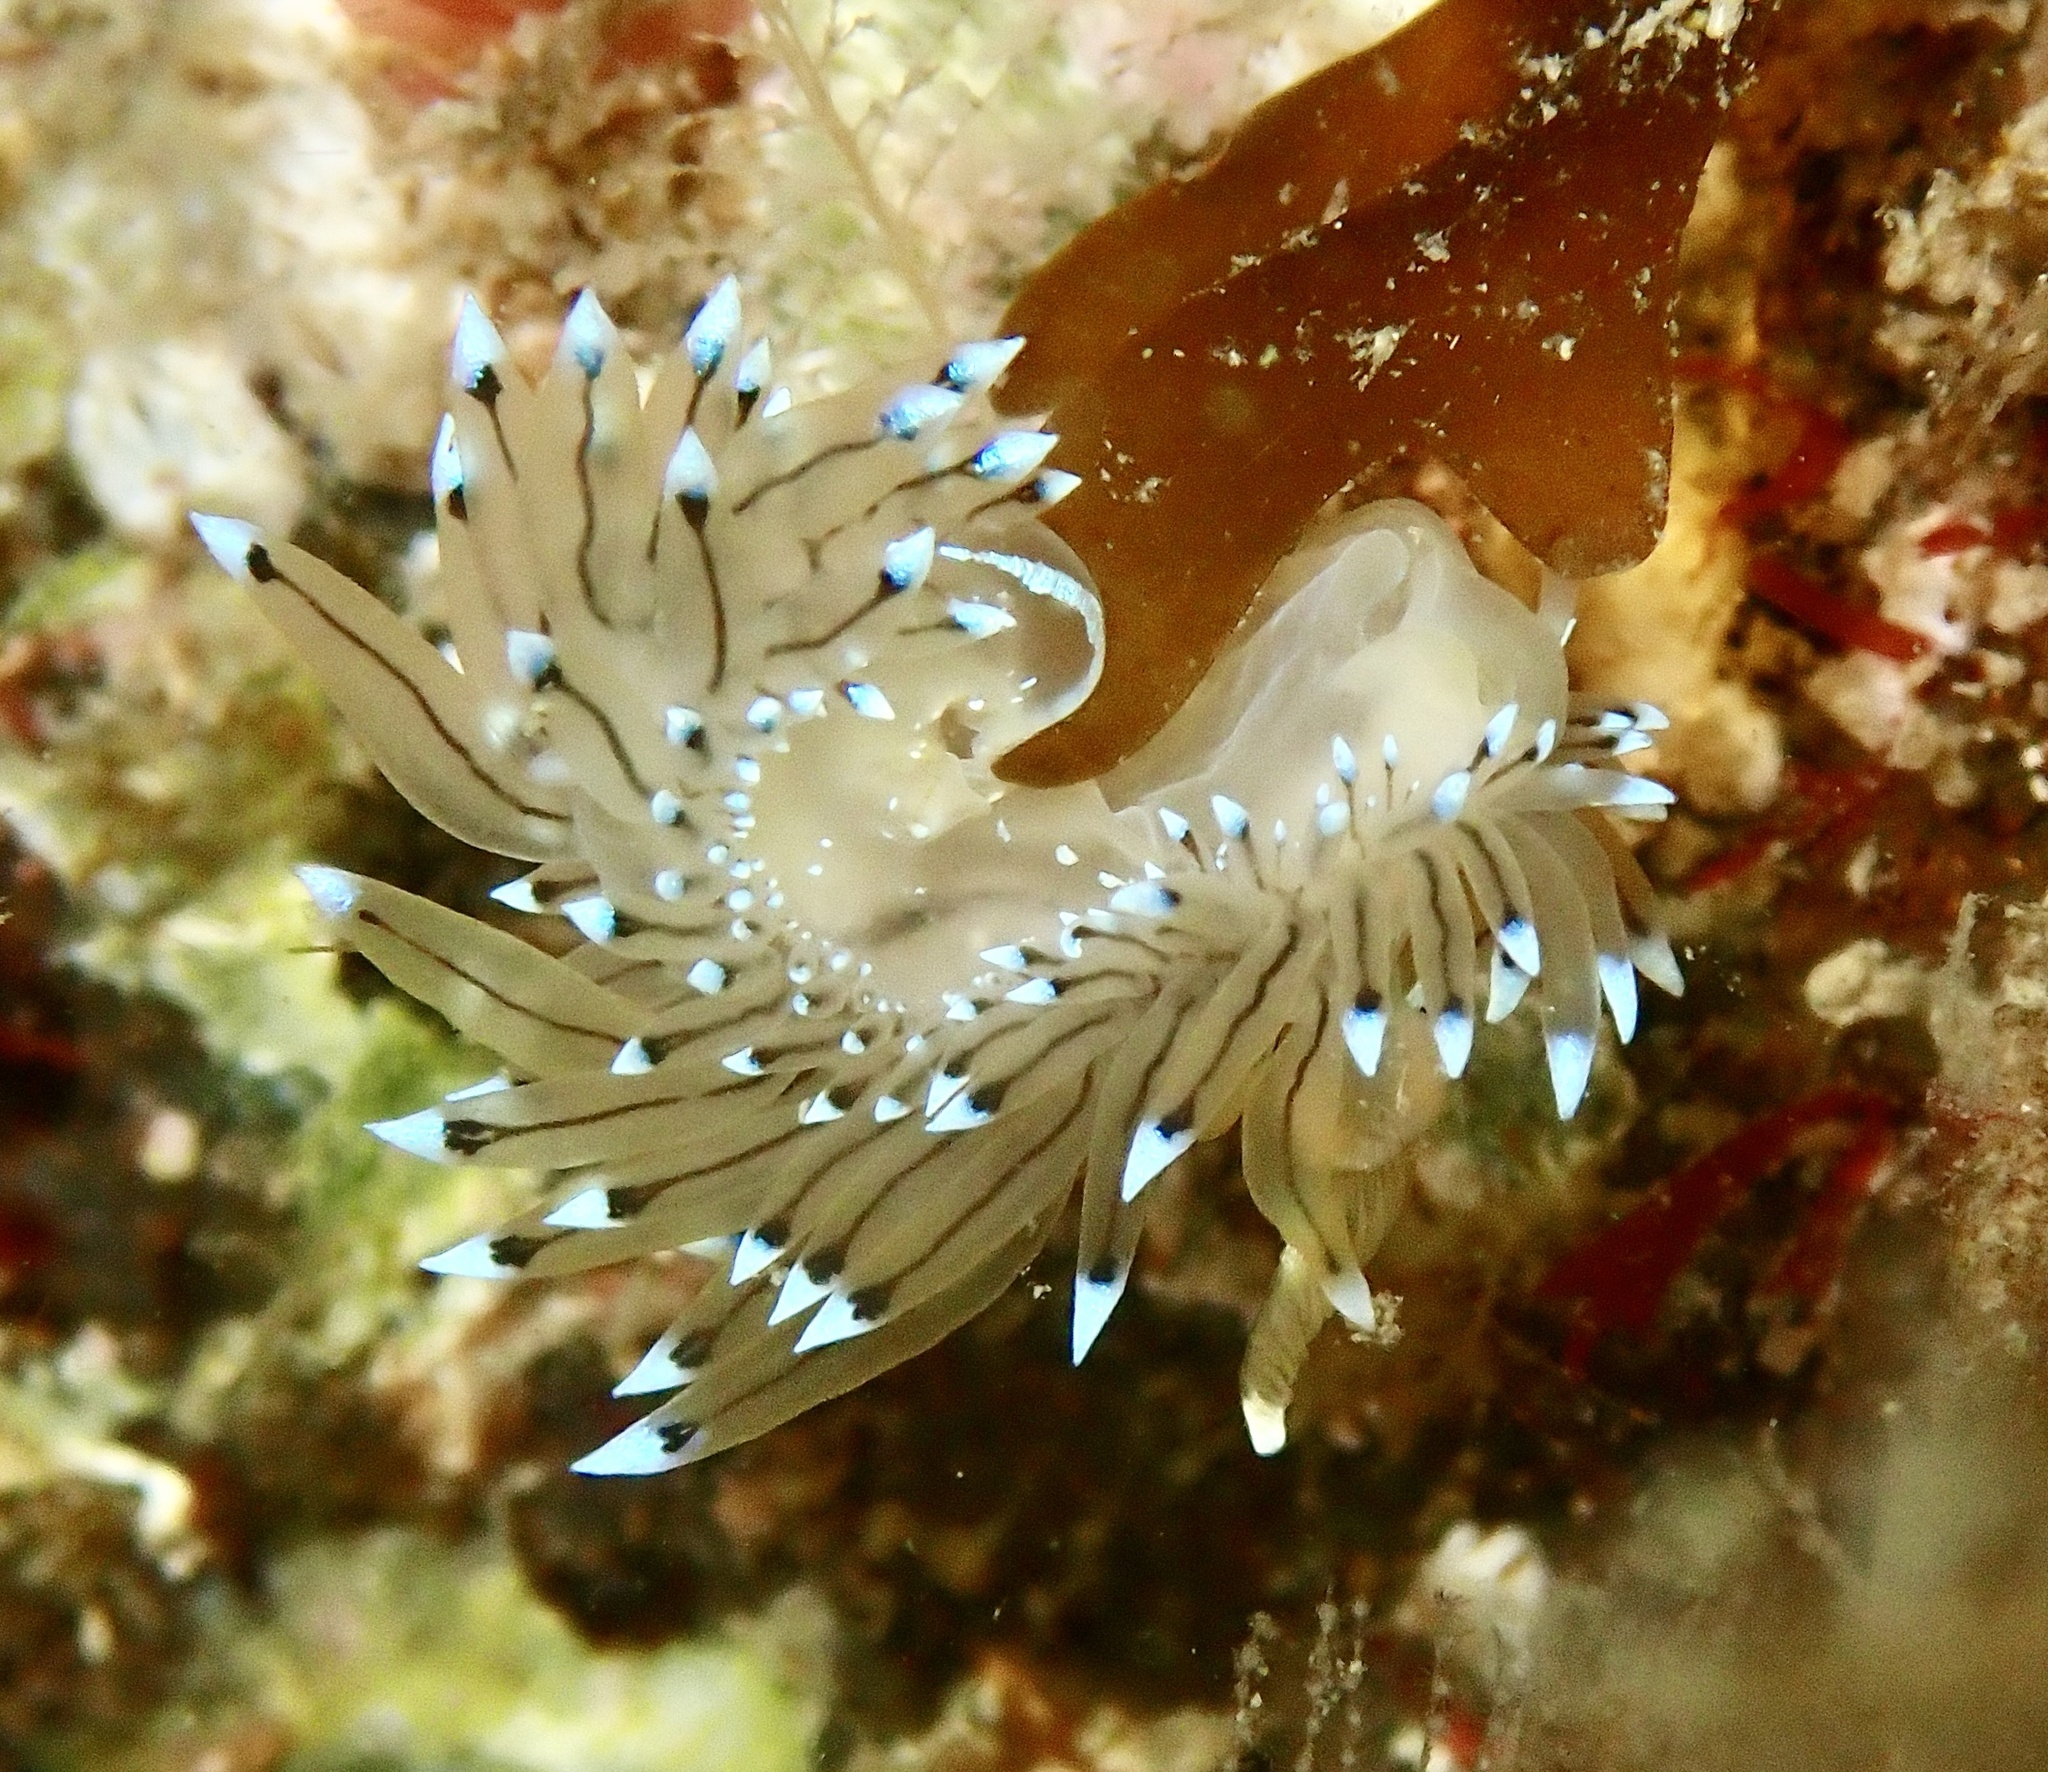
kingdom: Animalia
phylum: Mollusca
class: Gastropoda
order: Nudibranchia
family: Janolidae
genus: Antiopella
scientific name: Antiopella cristata
